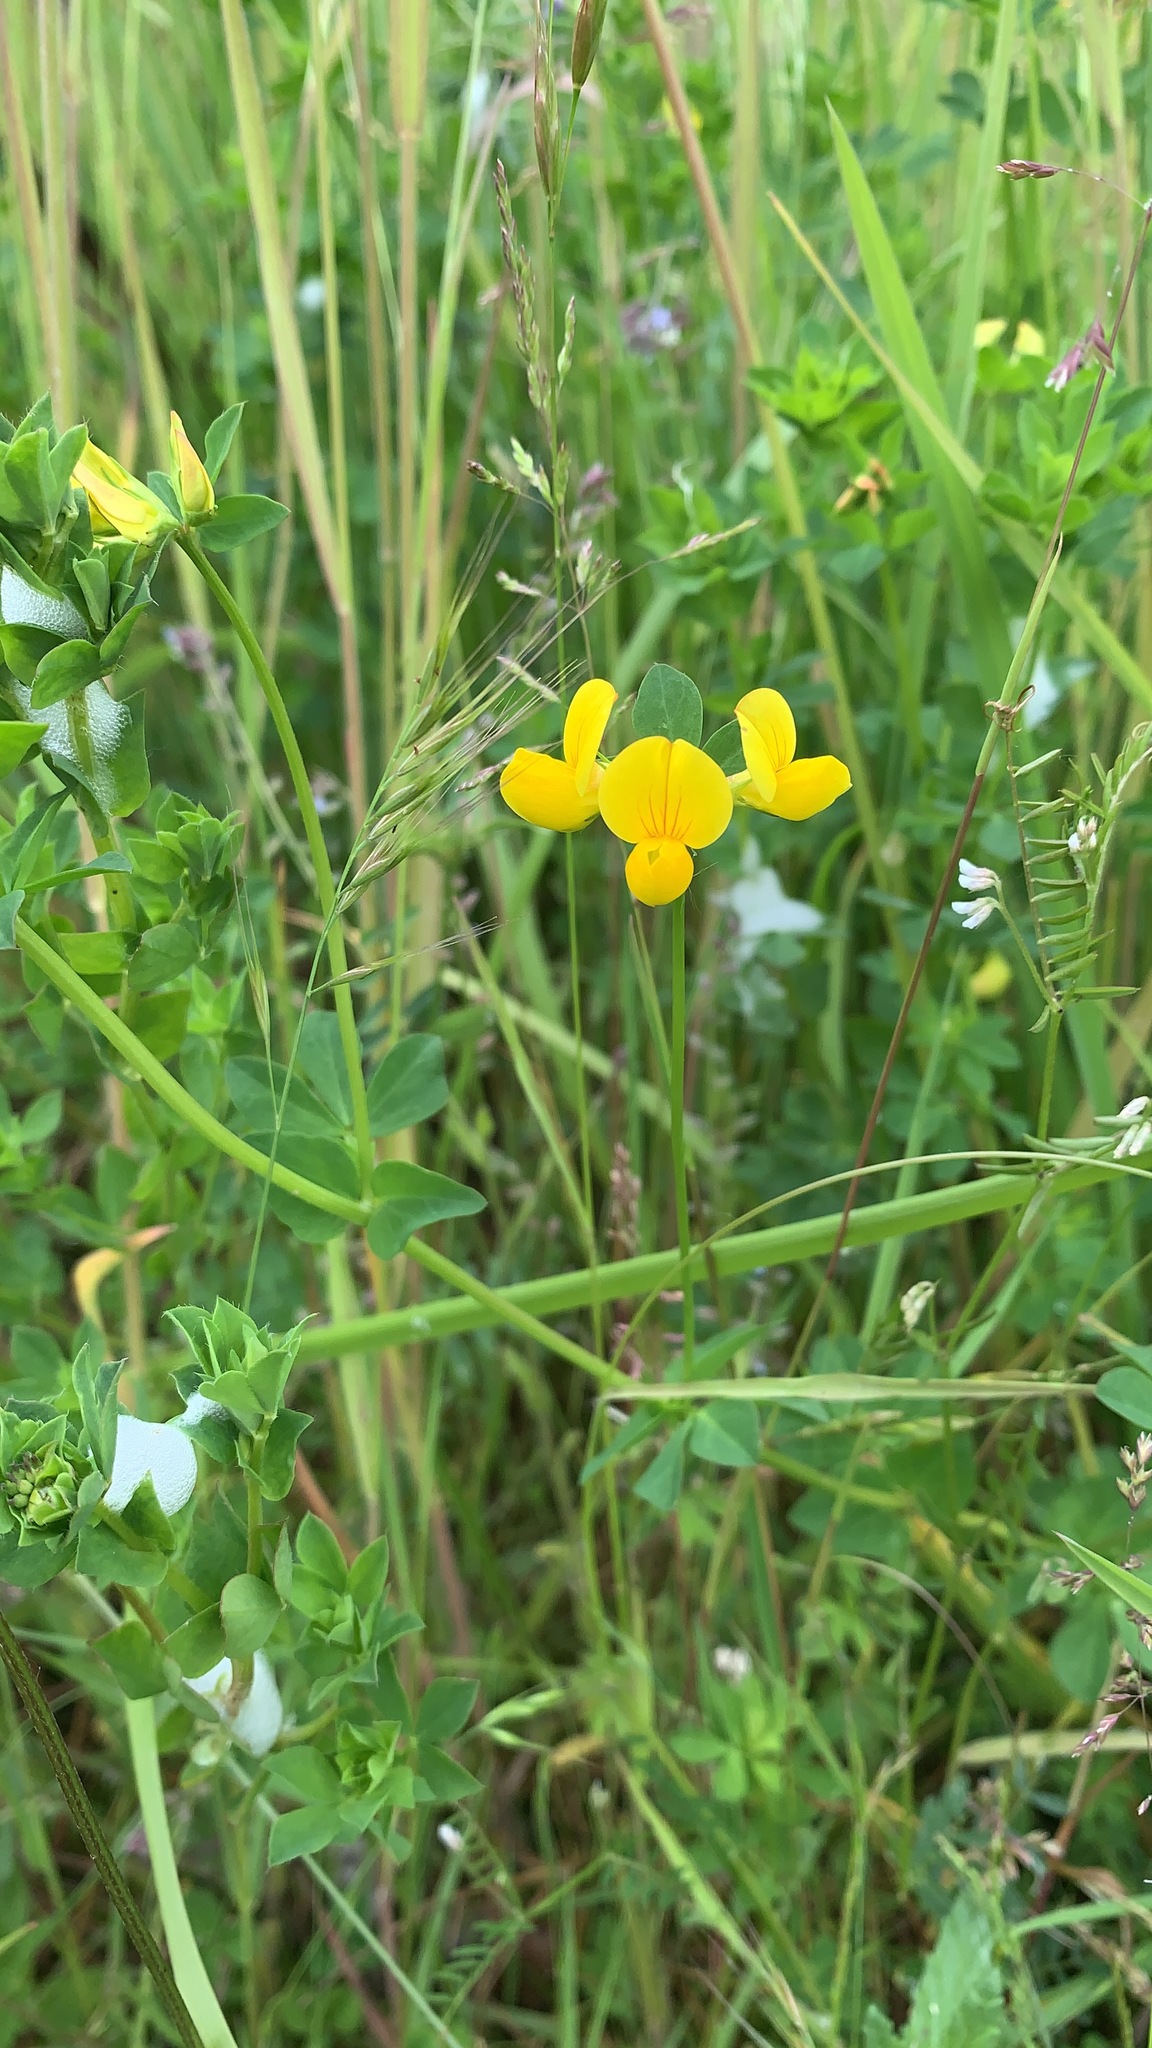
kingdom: Plantae
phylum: Tracheophyta
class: Magnoliopsida
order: Fabales
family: Fabaceae
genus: Lotus
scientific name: Lotus corniculatus
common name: Common bird's-foot-trefoil
